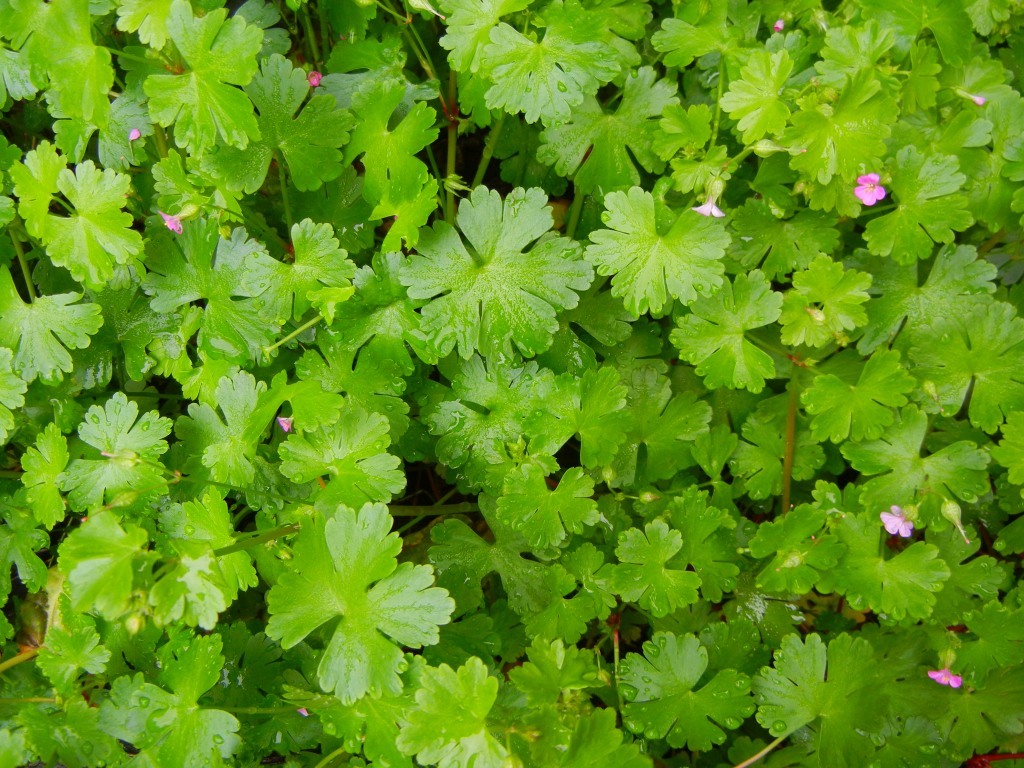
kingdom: Plantae
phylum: Tracheophyta
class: Magnoliopsida
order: Geraniales
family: Geraniaceae
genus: Geranium
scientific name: Geranium lucidum
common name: Shining crane's-bill
